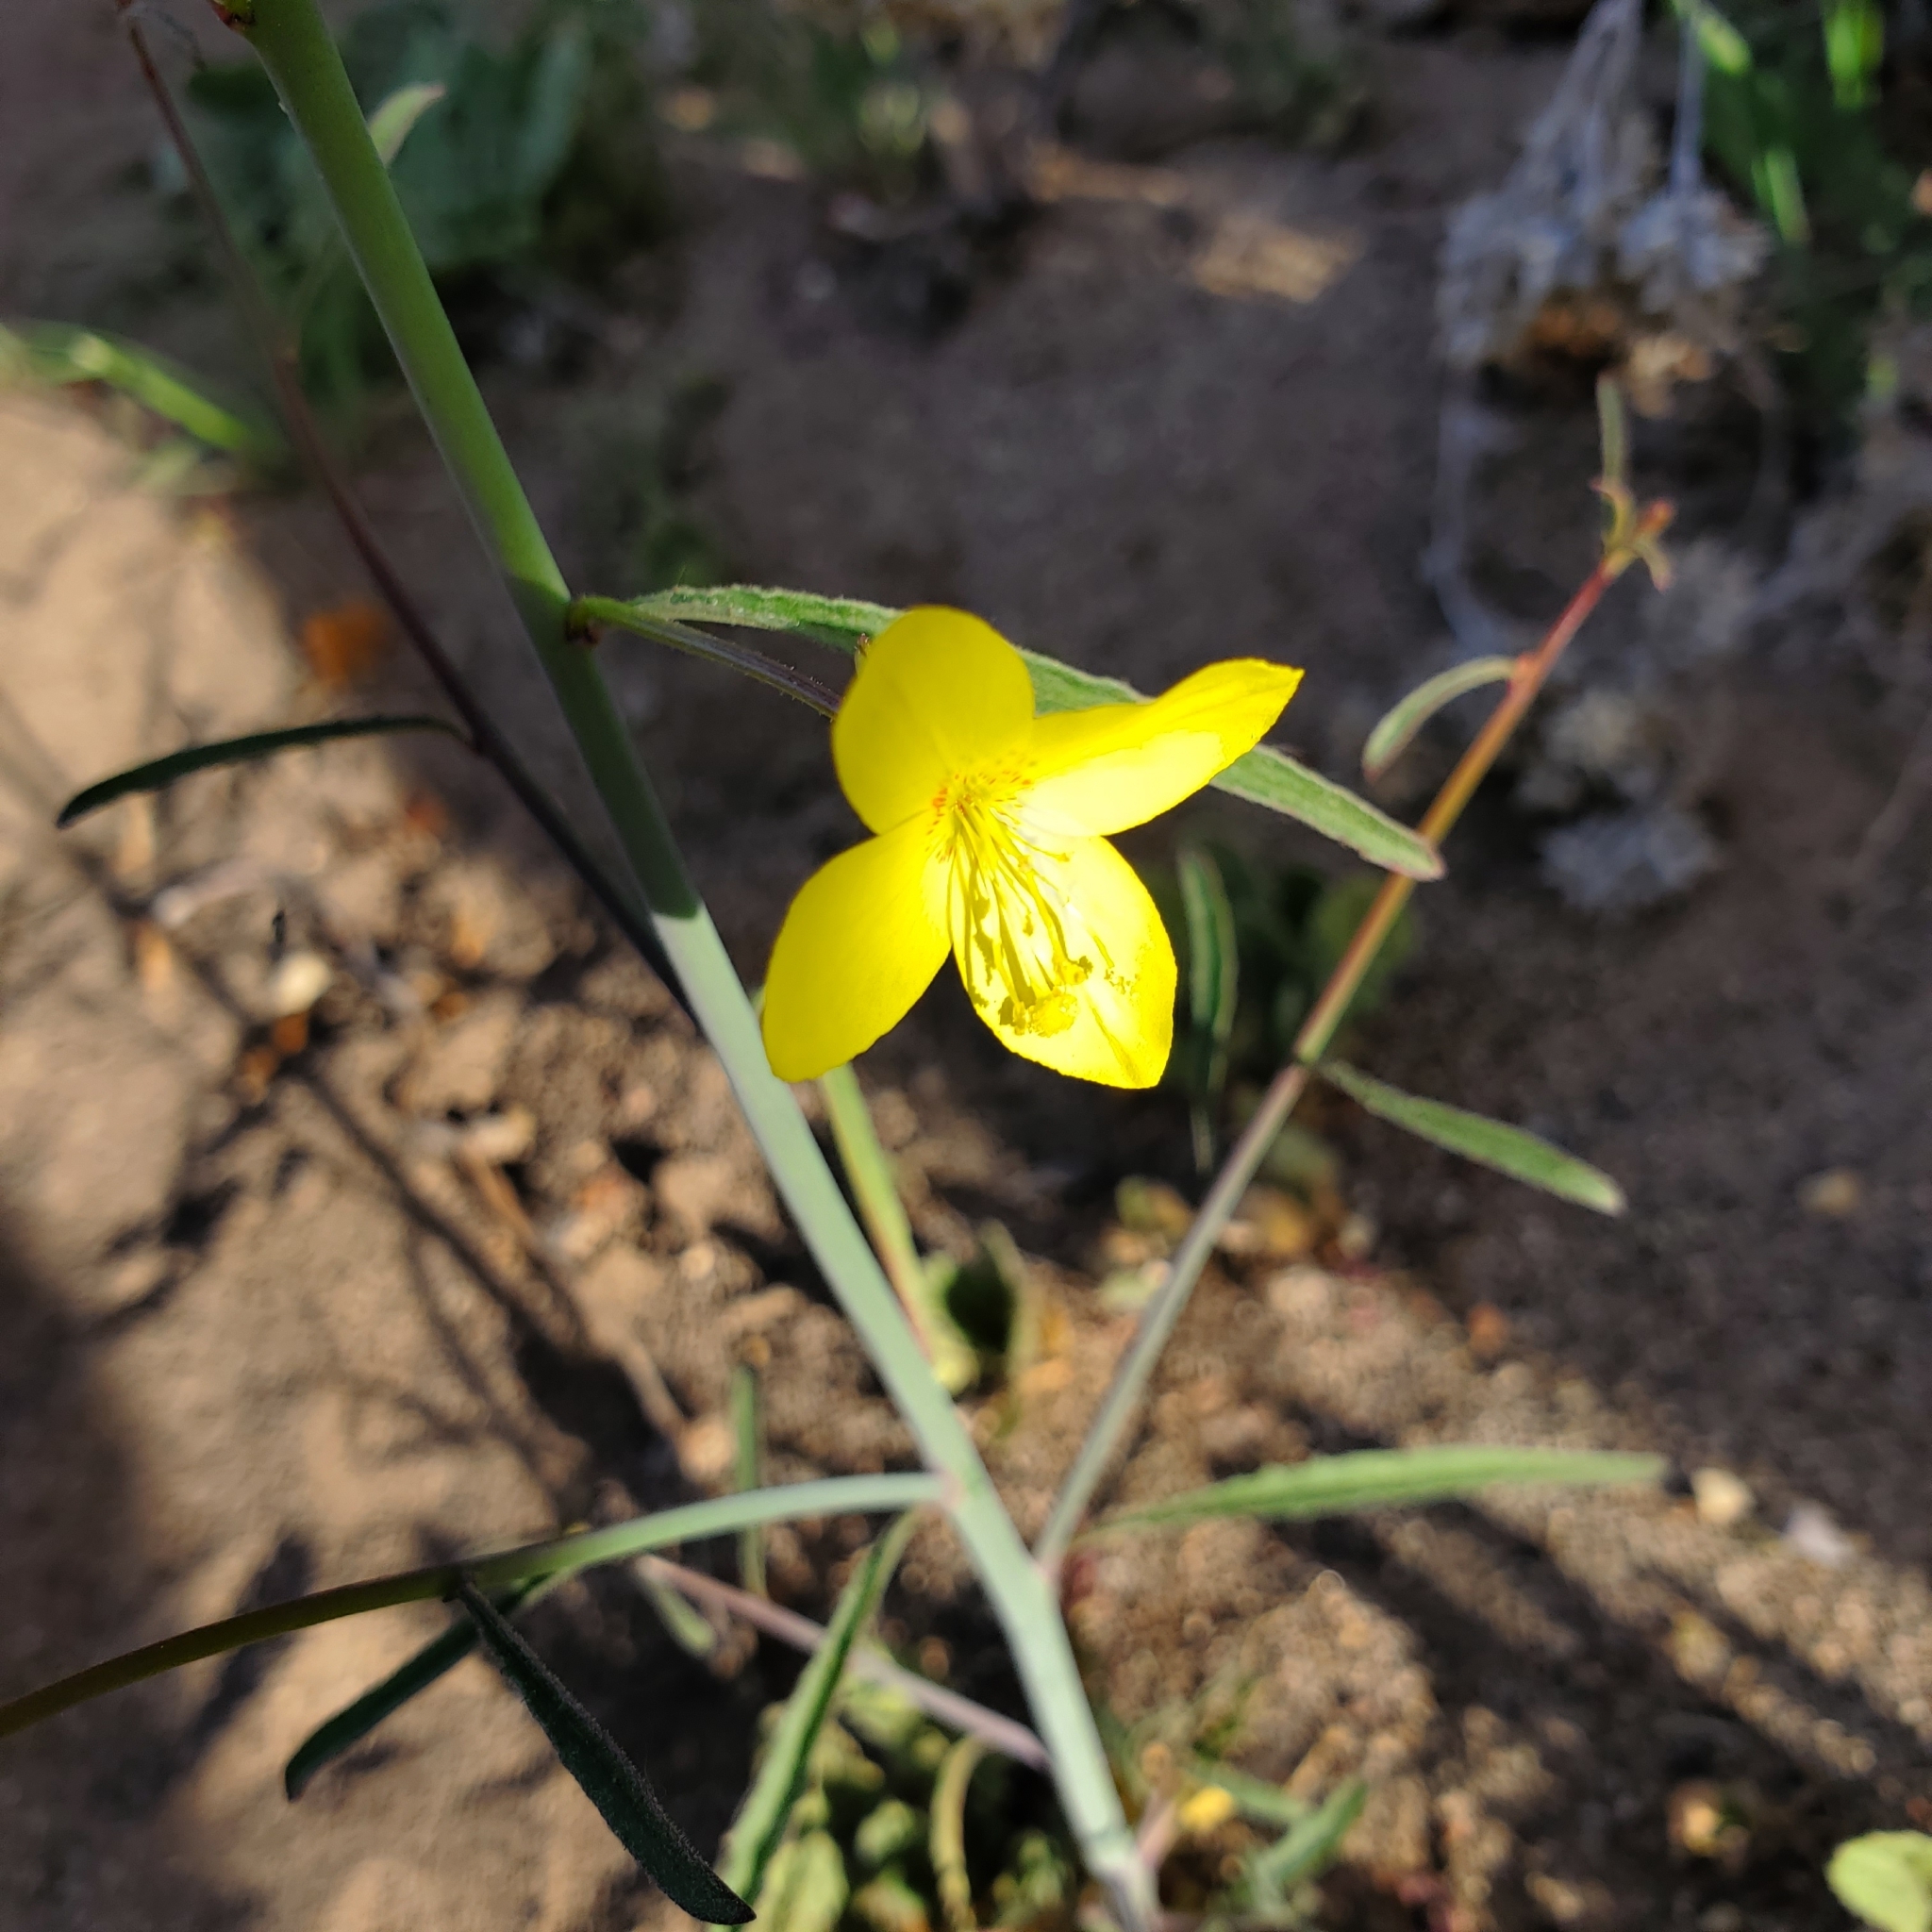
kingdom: Plantae
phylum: Tracheophyta
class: Magnoliopsida
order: Myrtales
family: Onagraceae
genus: Eulobus
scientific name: Eulobus californicus
